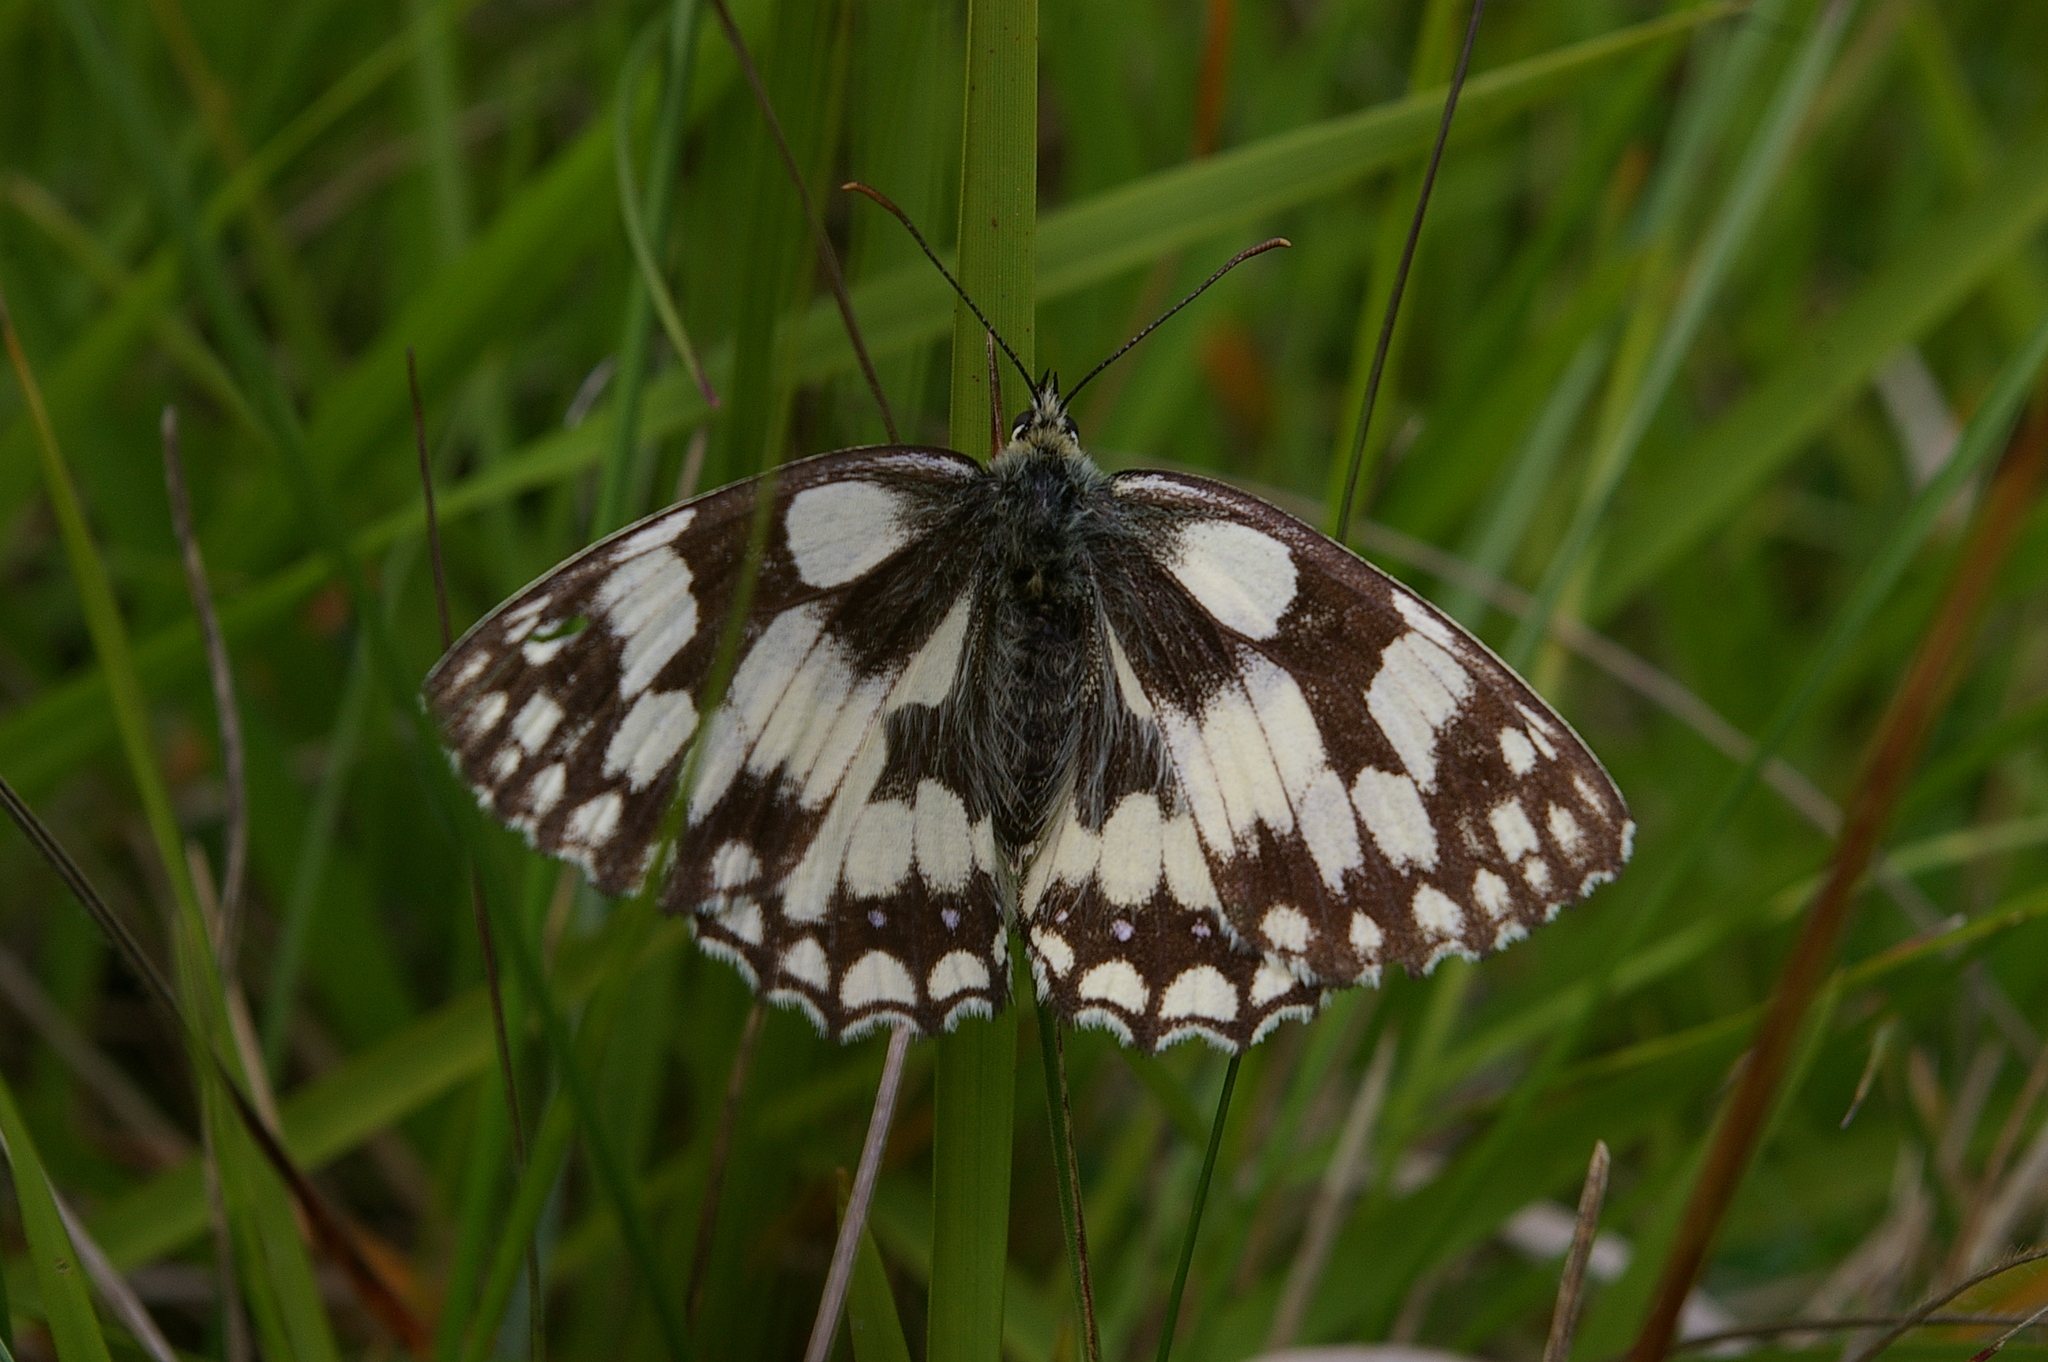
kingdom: Animalia
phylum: Arthropoda
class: Insecta
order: Lepidoptera
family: Nymphalidae
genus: Melanargia
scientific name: Melanargia galathea
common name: Marbled white
